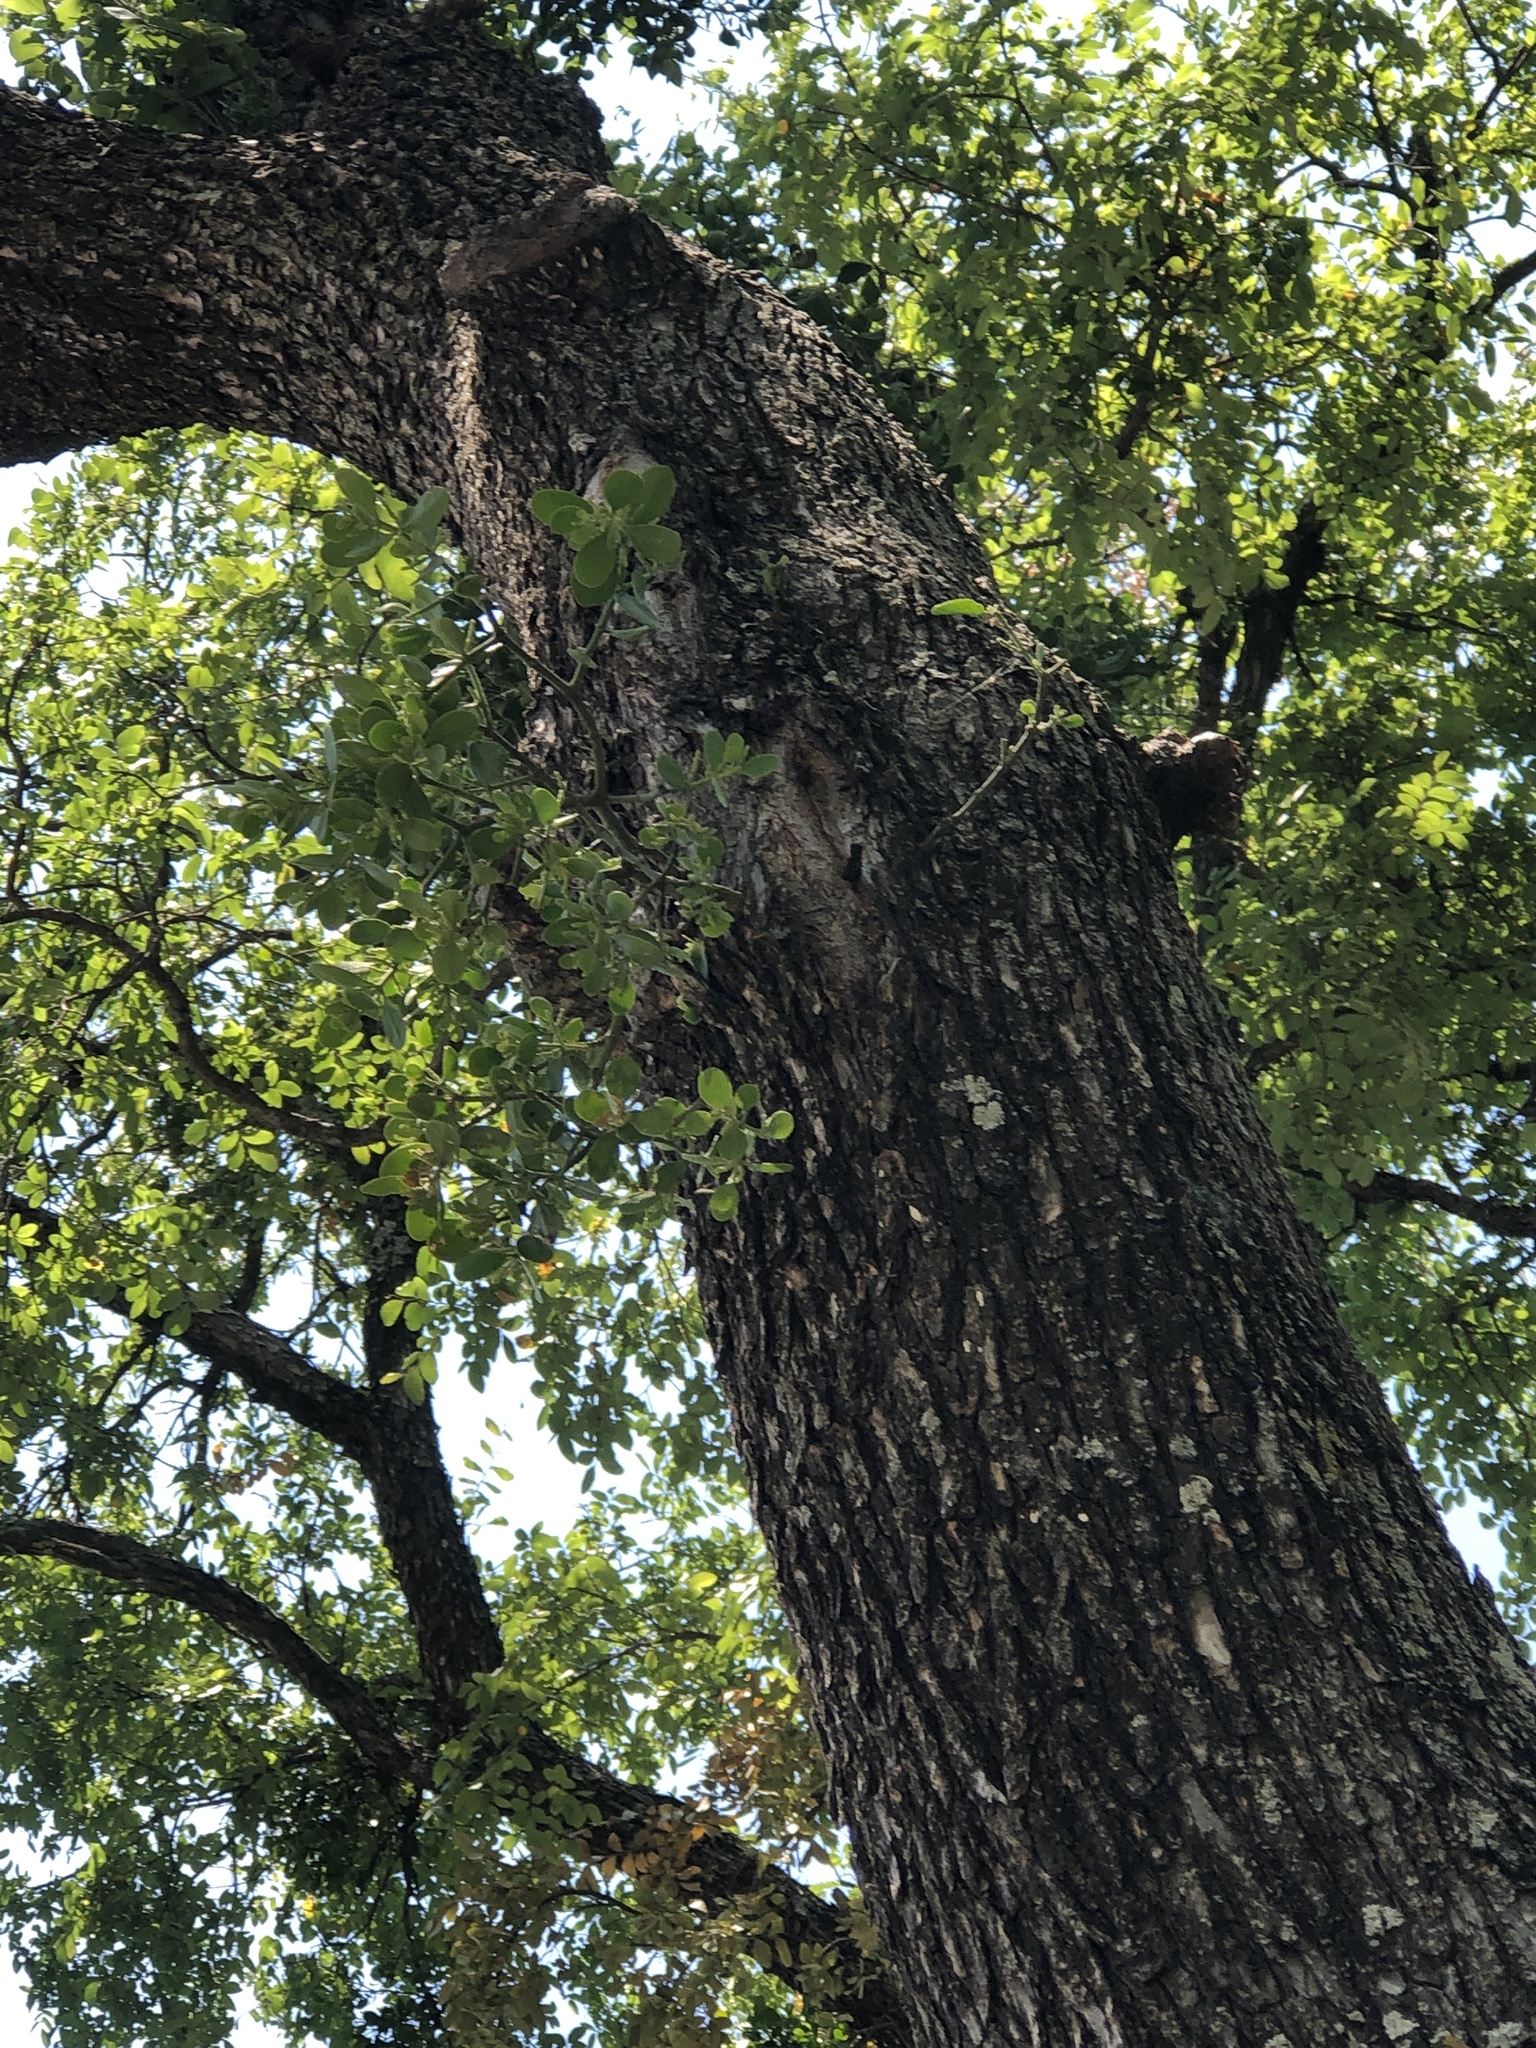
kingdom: Plantae
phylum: Tracheophyta
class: Magnoliopsida
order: Santalales
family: Viscaceae
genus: Phoradendron
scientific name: Phoradendron leucarpum
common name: Pacific mistletoe
